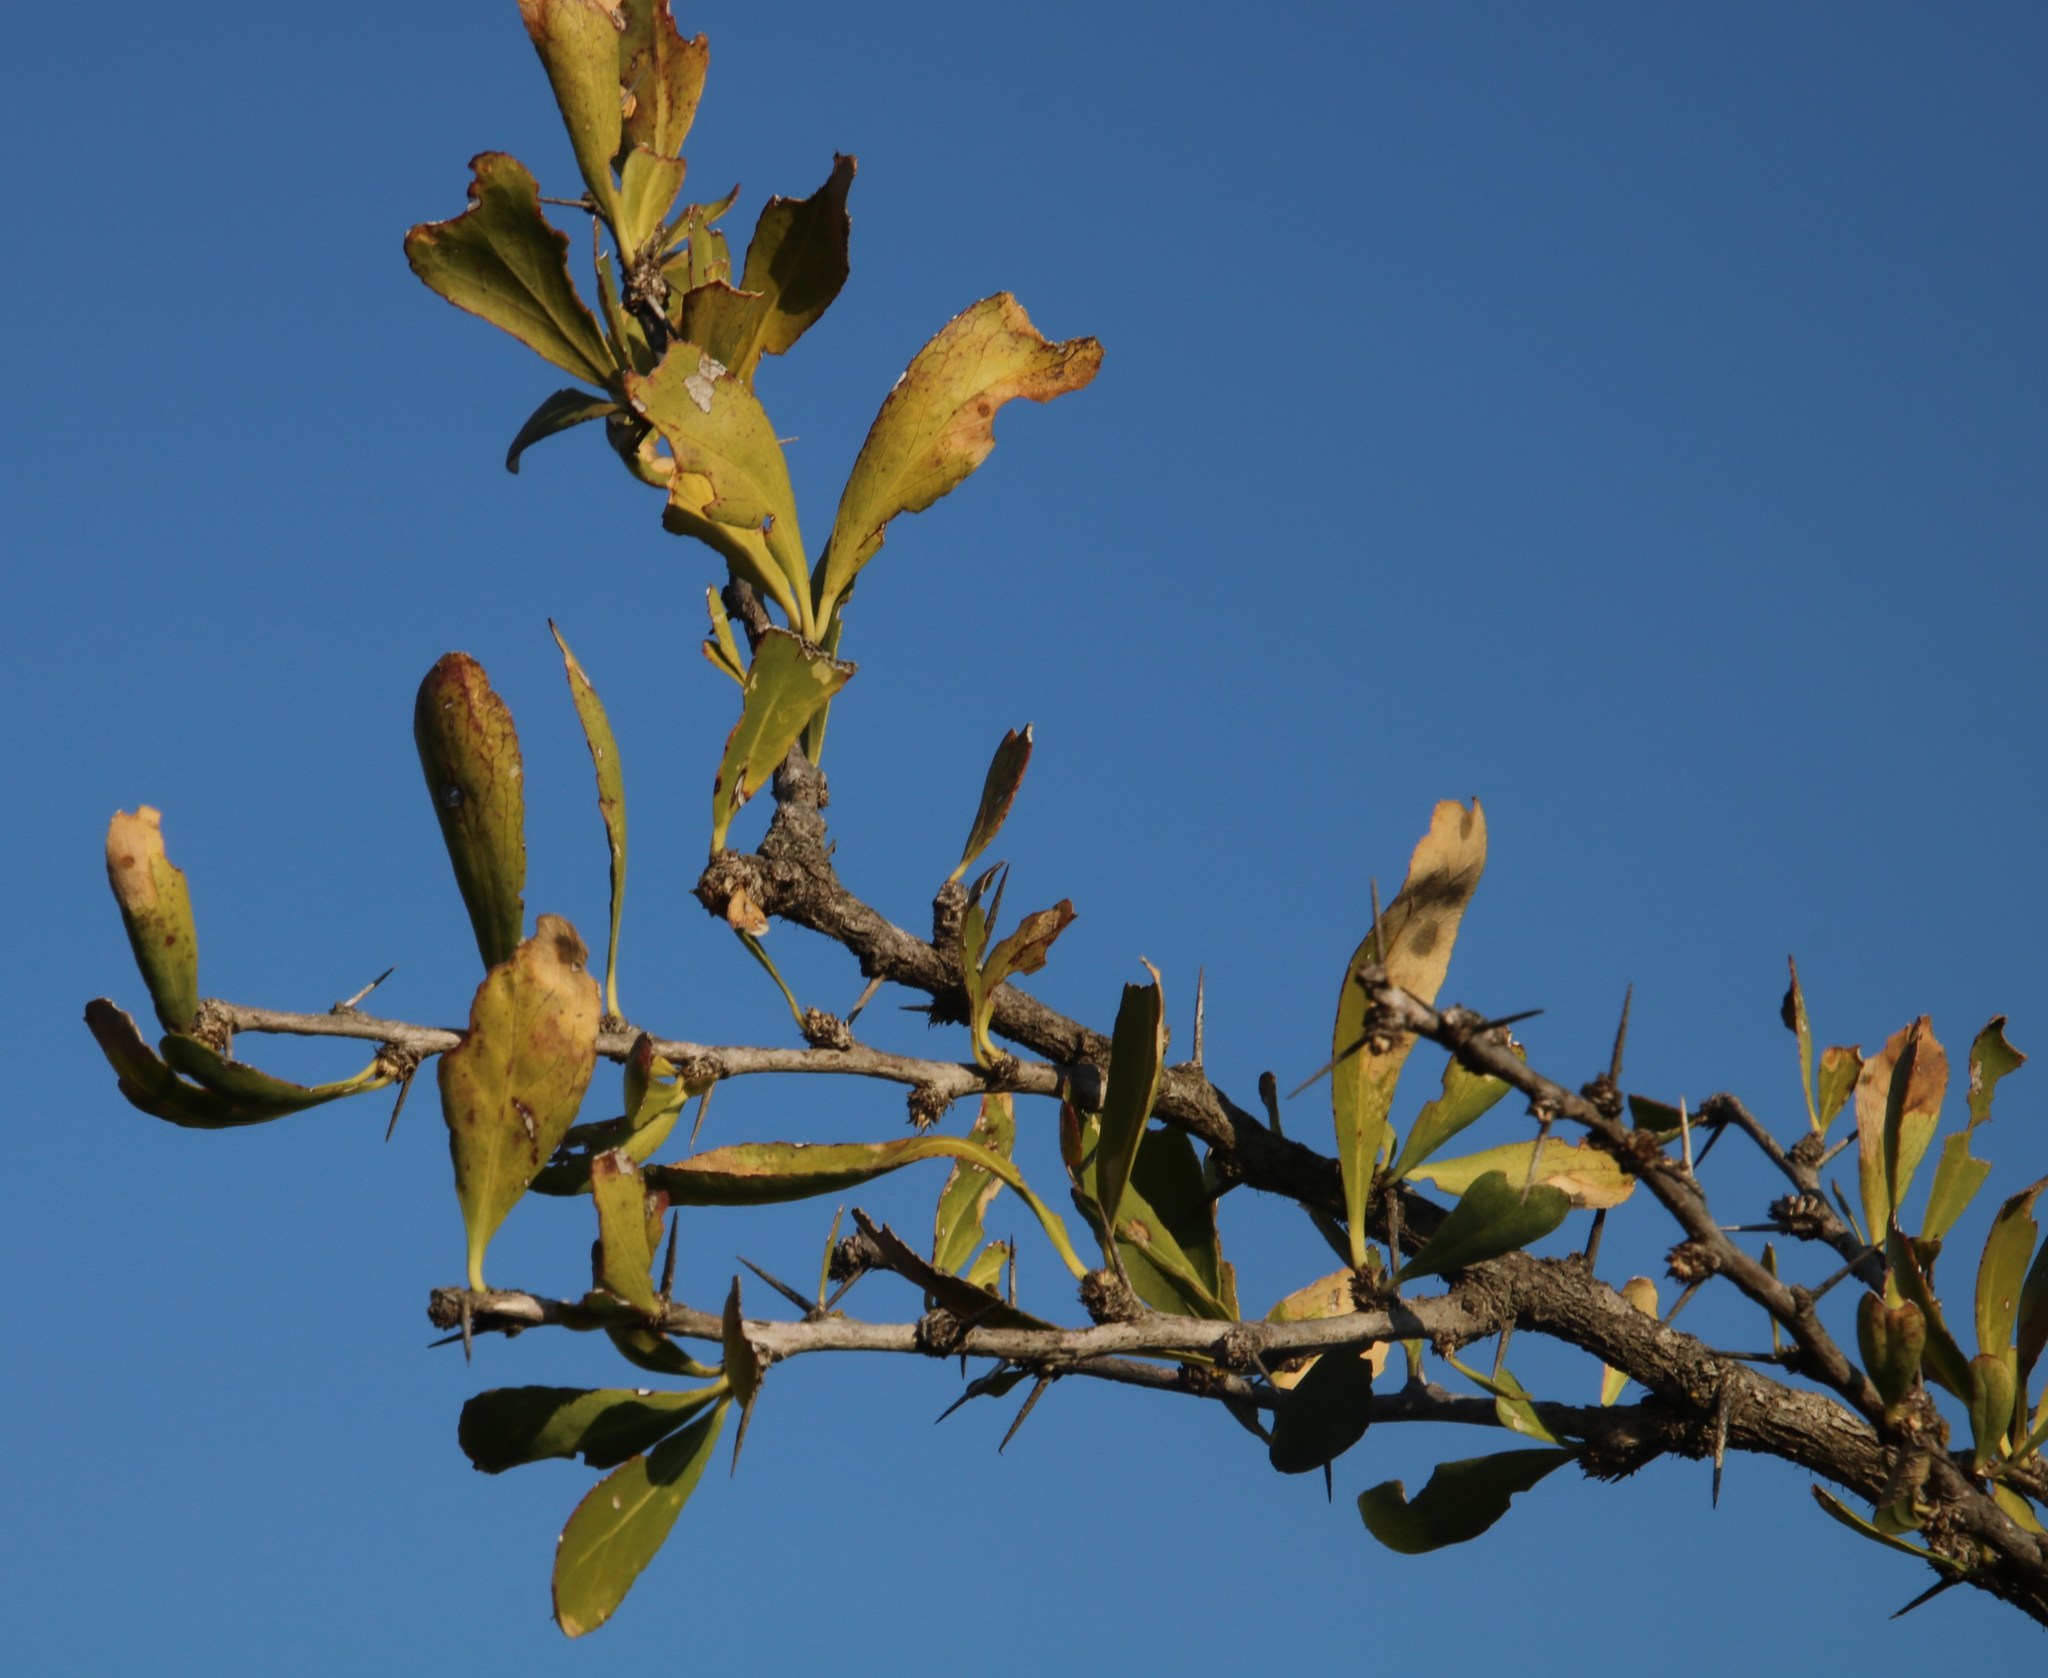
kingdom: Plantae
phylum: Tracheophyta
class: Magnoliopsida
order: Celastrales
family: Celastraceae
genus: Gymnosporia
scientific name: Gymnosporia buxifolia
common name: Common spike-thorn
